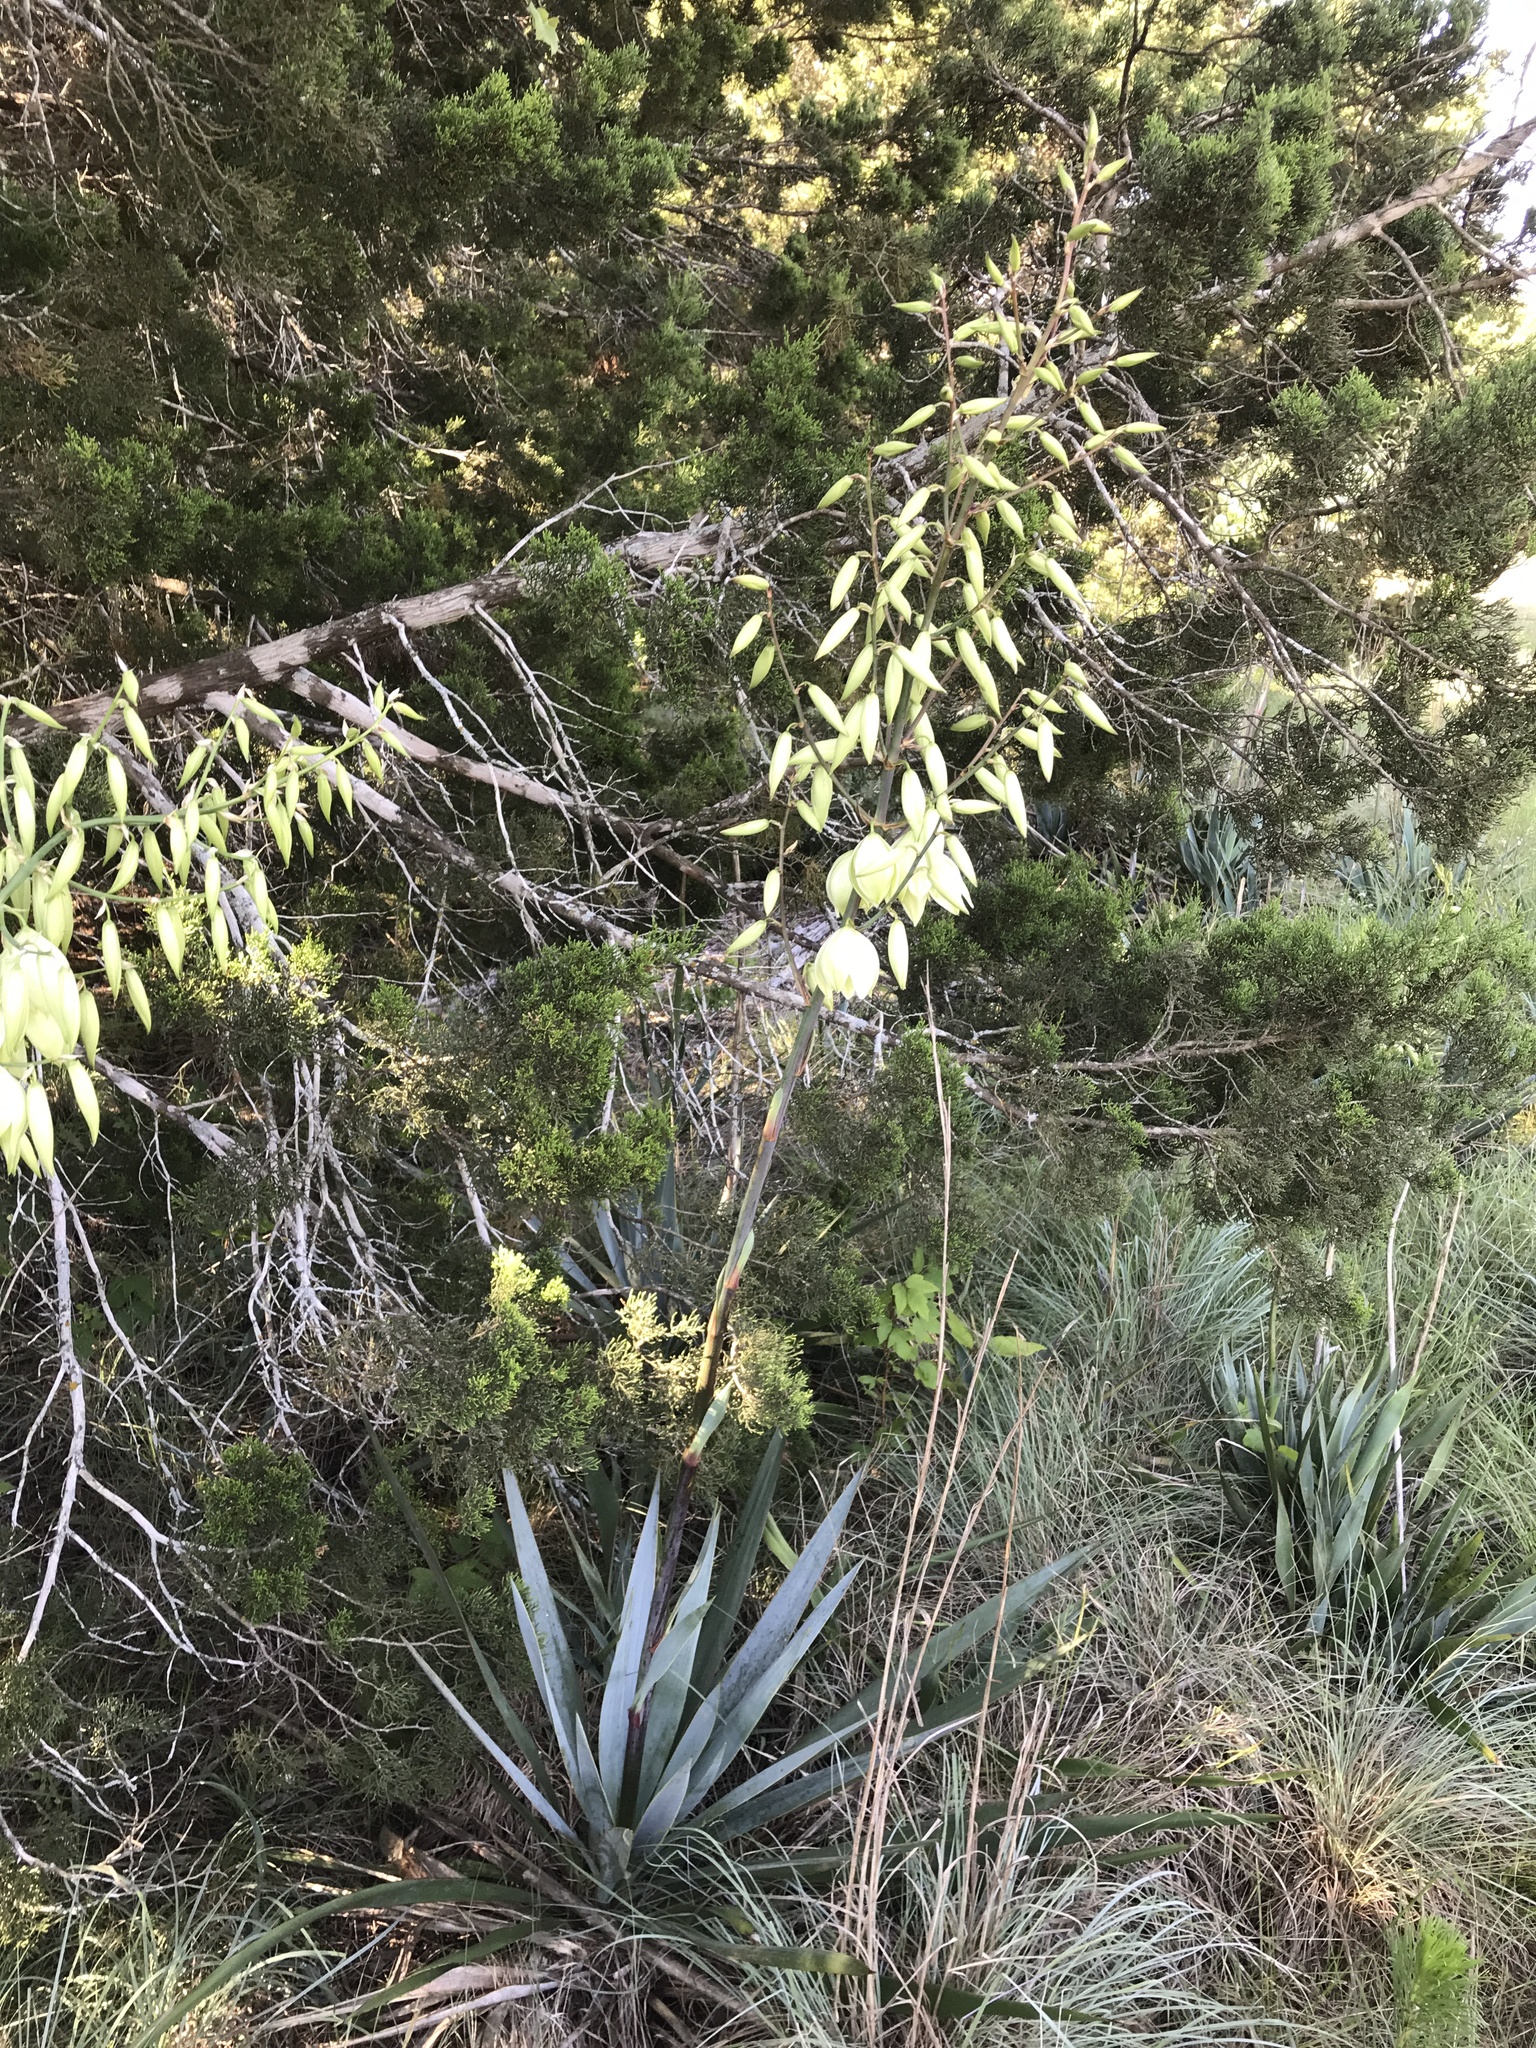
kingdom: Plantae
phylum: Tracheophyta
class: Liliopsida
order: Asparagales
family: Asparagaceae
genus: Yucca
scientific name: Yucca pallida
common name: Pale leaf yucca
